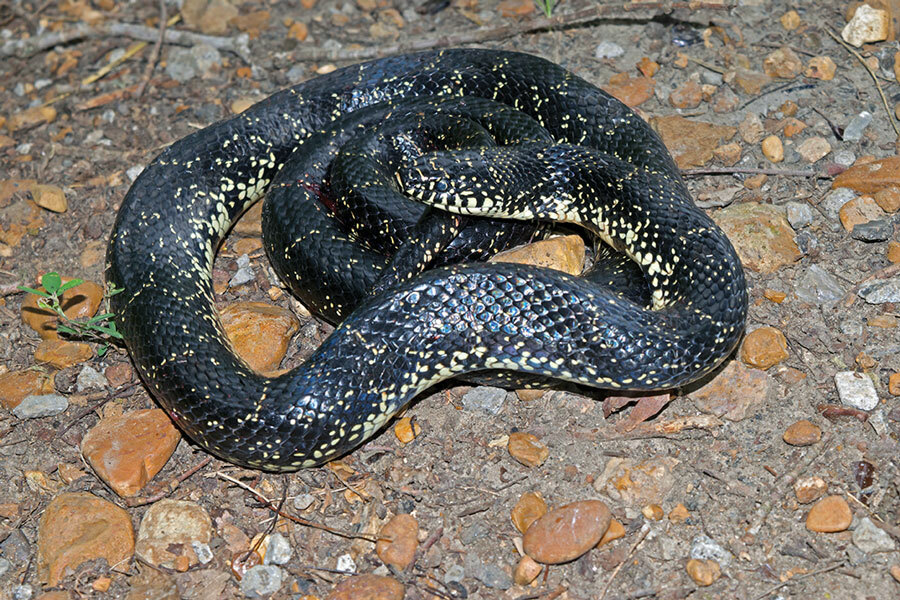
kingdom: Animalia
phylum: Chordata
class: Squamata
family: Colubridae
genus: Lampropeltis
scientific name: Lampropeltis nigra
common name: Black kingsnake
